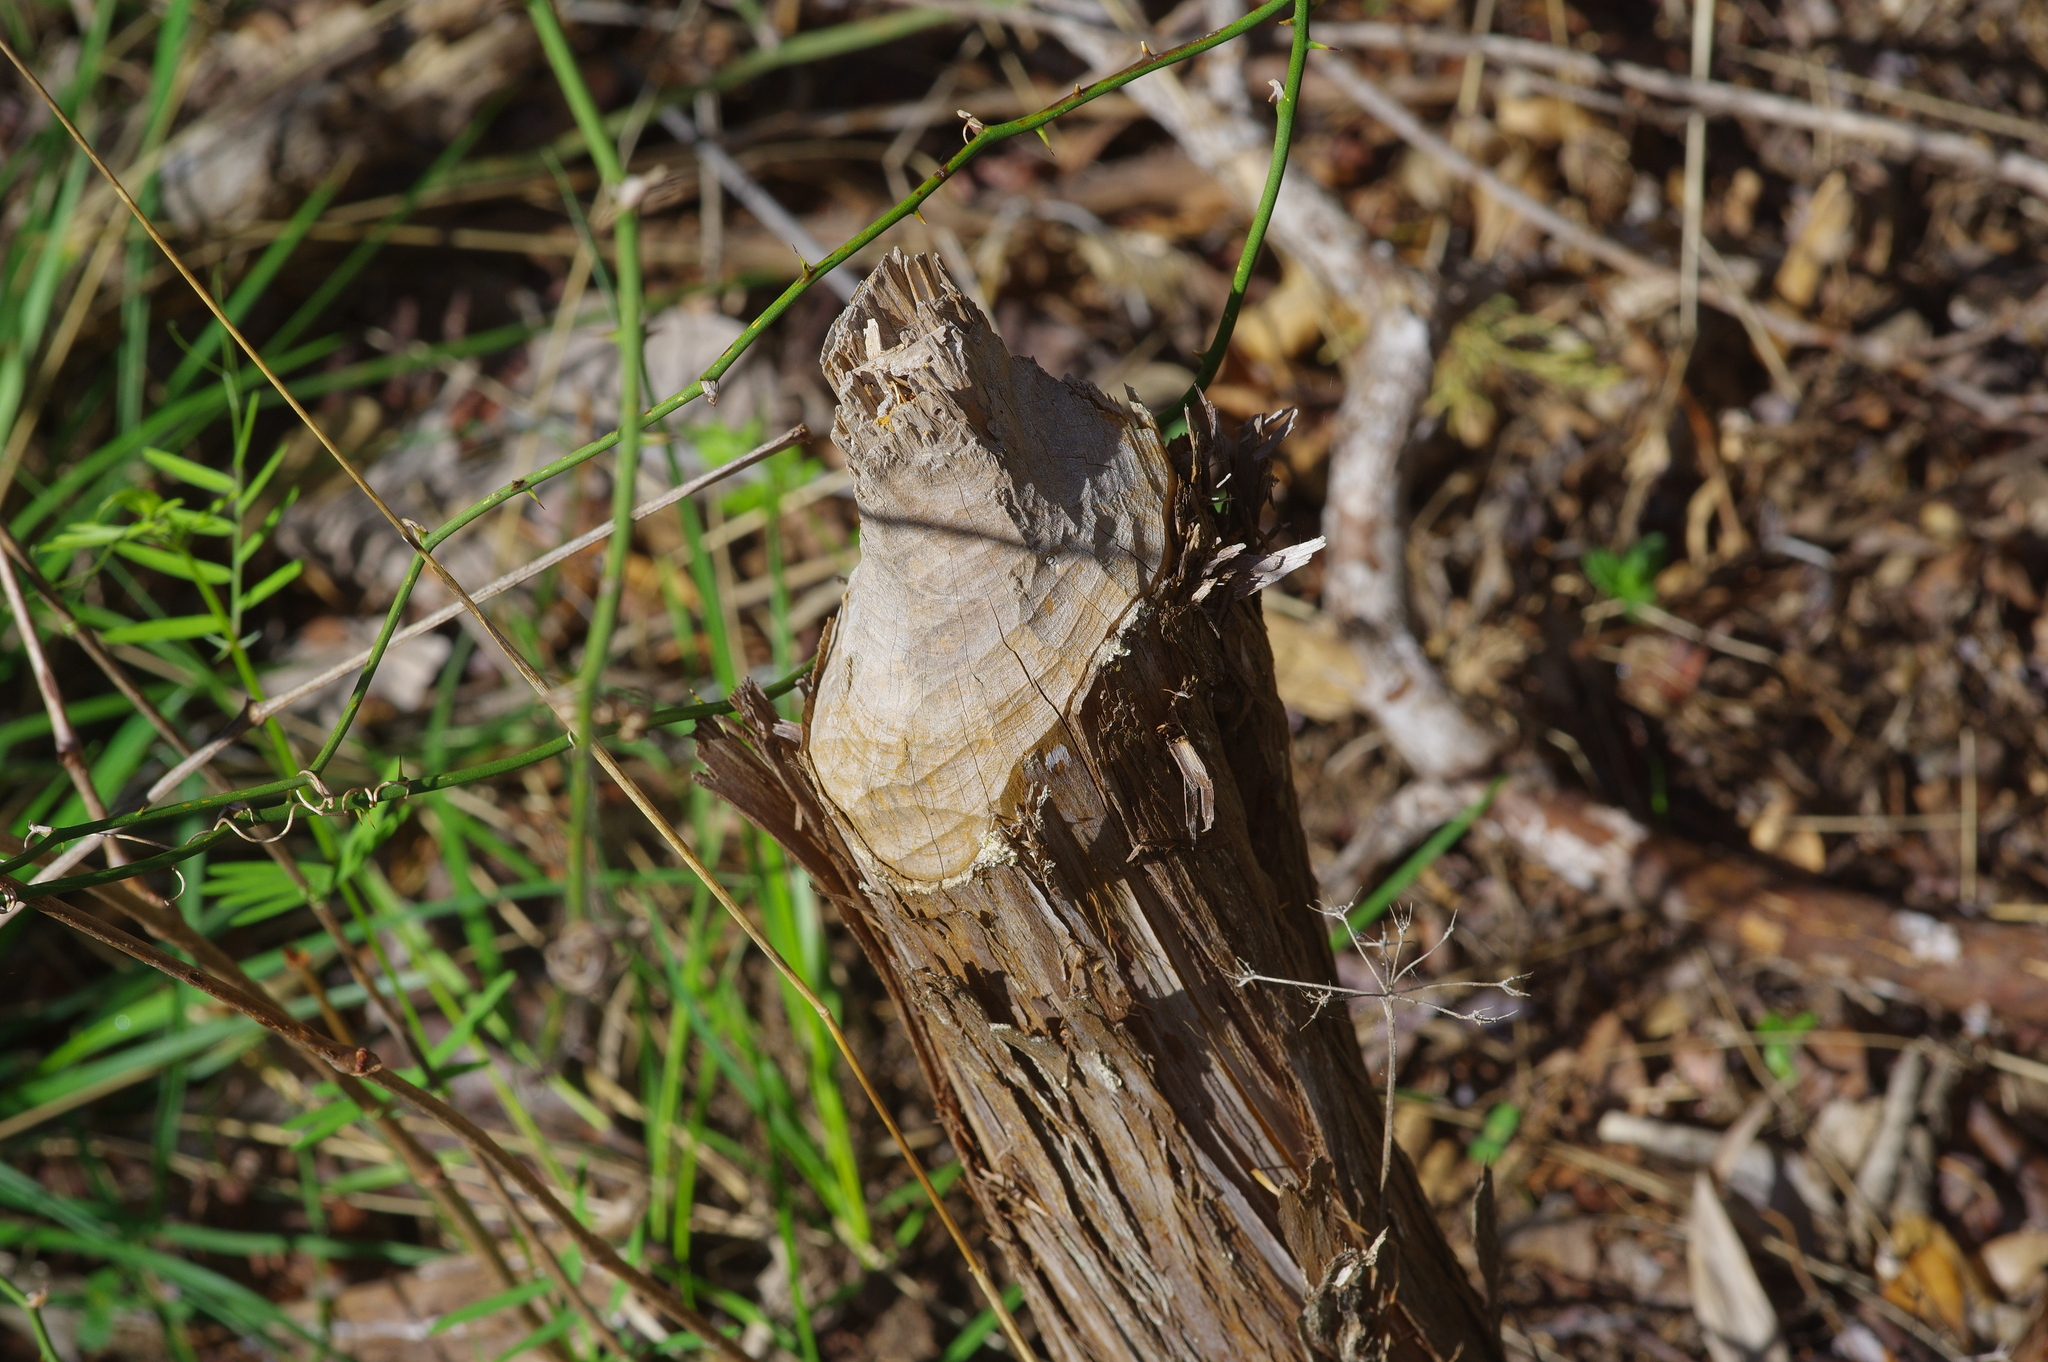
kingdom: Animalia
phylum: Chordata
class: Mammalia
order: Rodentia
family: Castoridae
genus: Castor
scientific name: Castor canadensis
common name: American beaver
